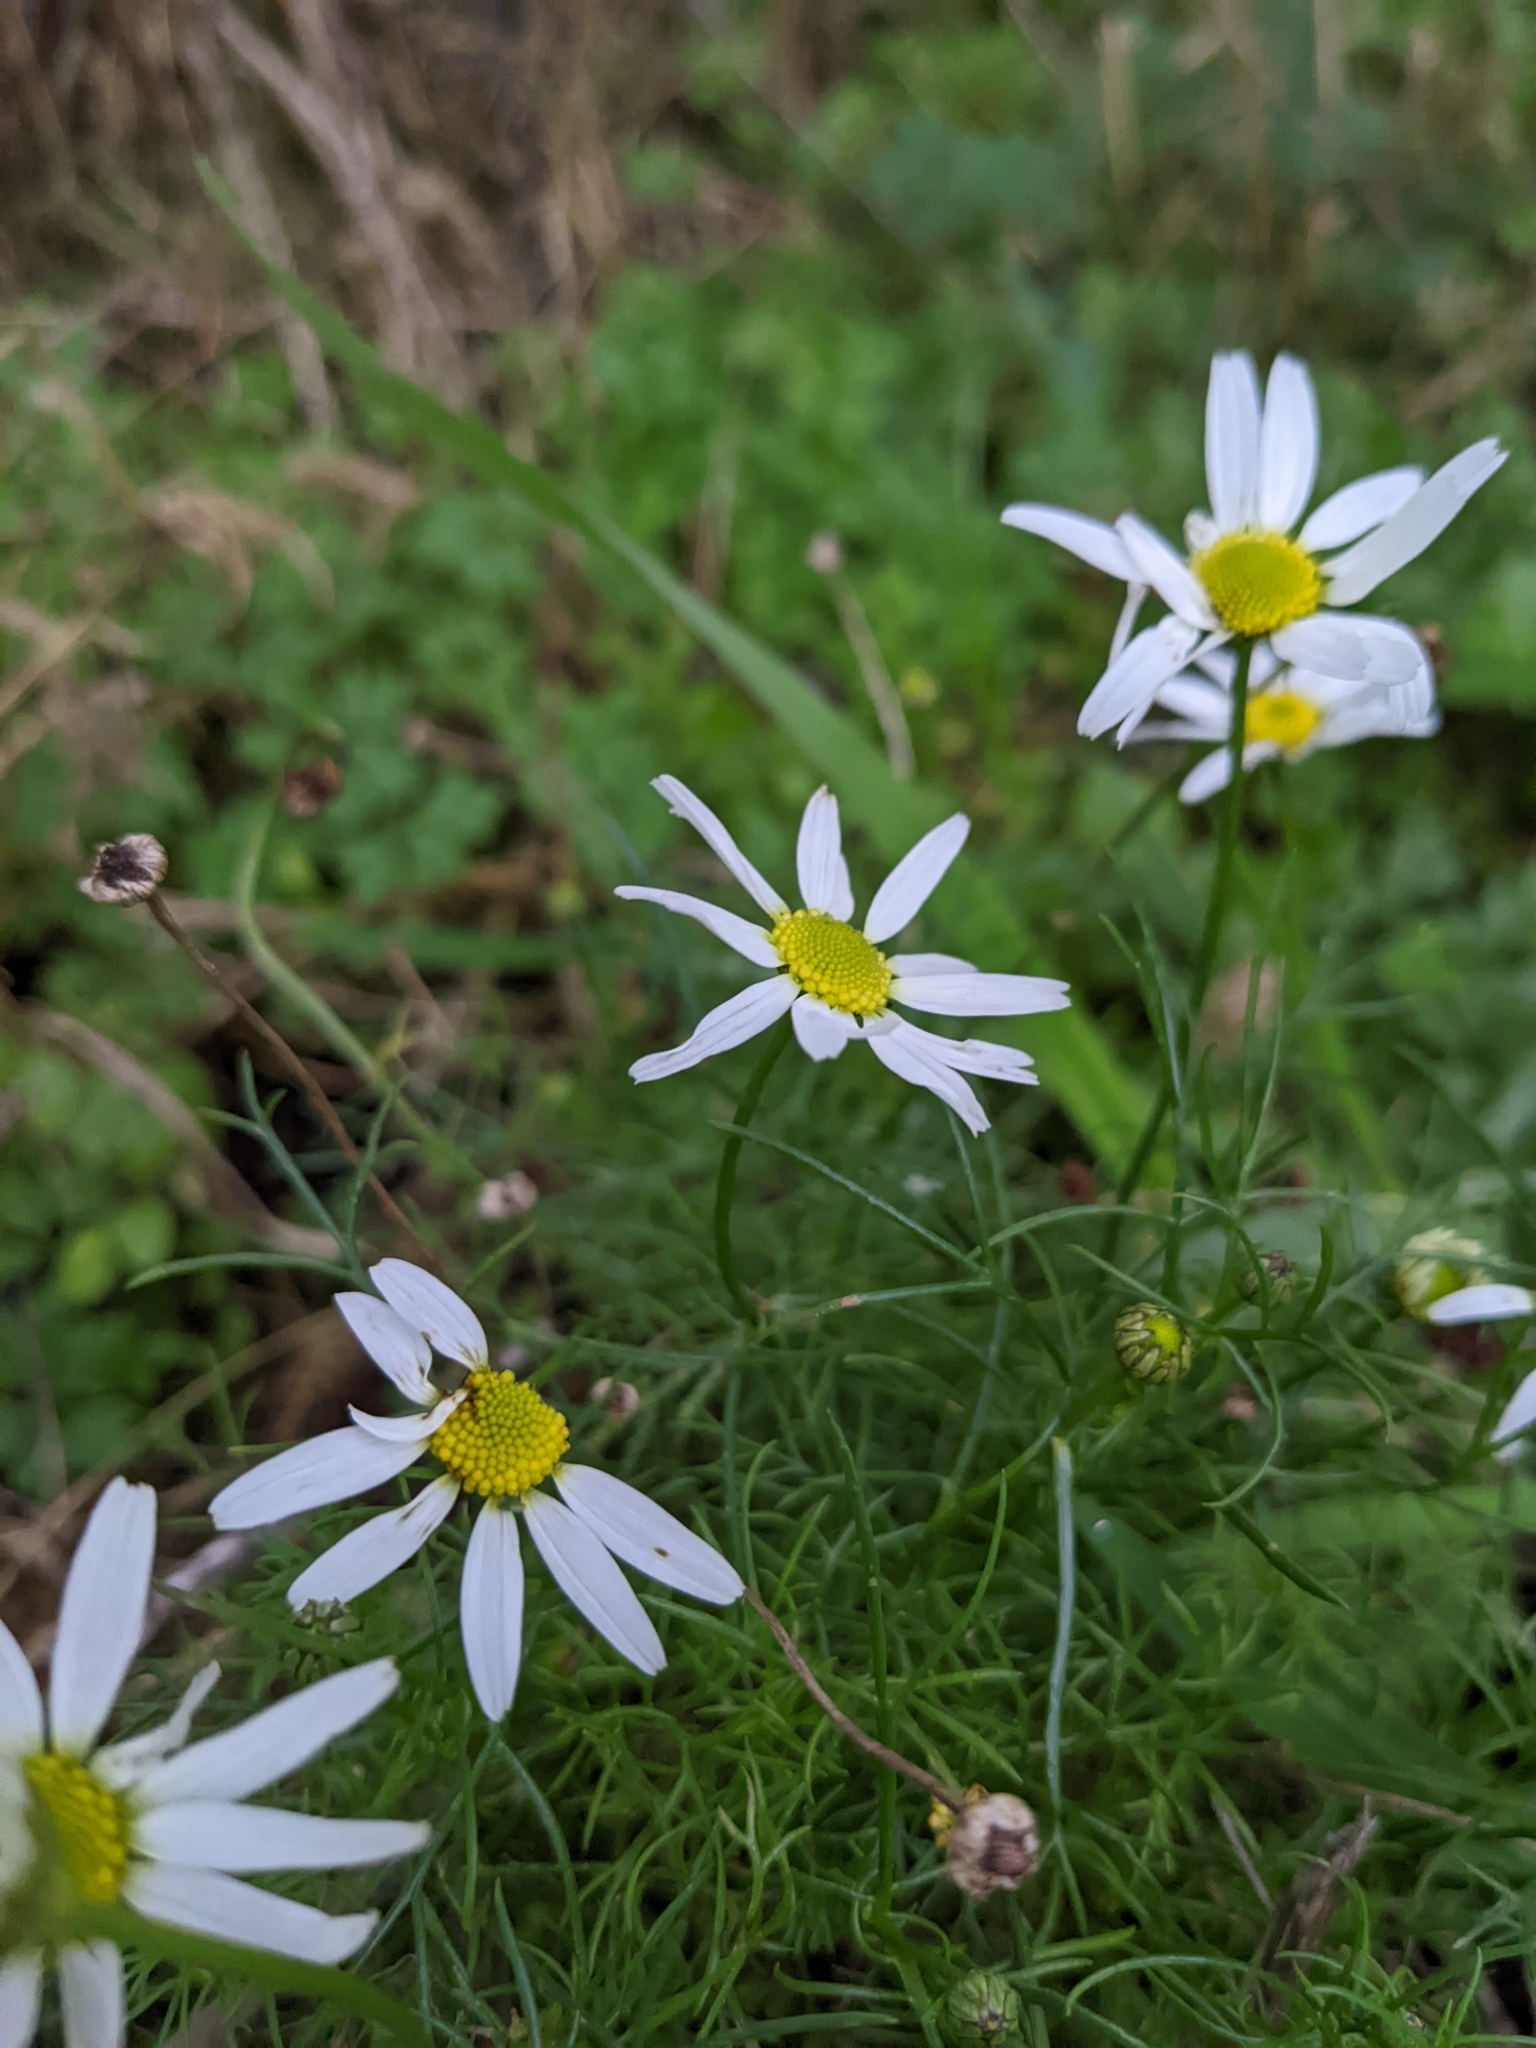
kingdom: Plantae
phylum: Tracheophyta
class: Magnoliopsida
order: Asterales
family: Asteraceae
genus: Tripleurospermum
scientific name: Tripleurospermum inodorum
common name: Scentless mayweed
